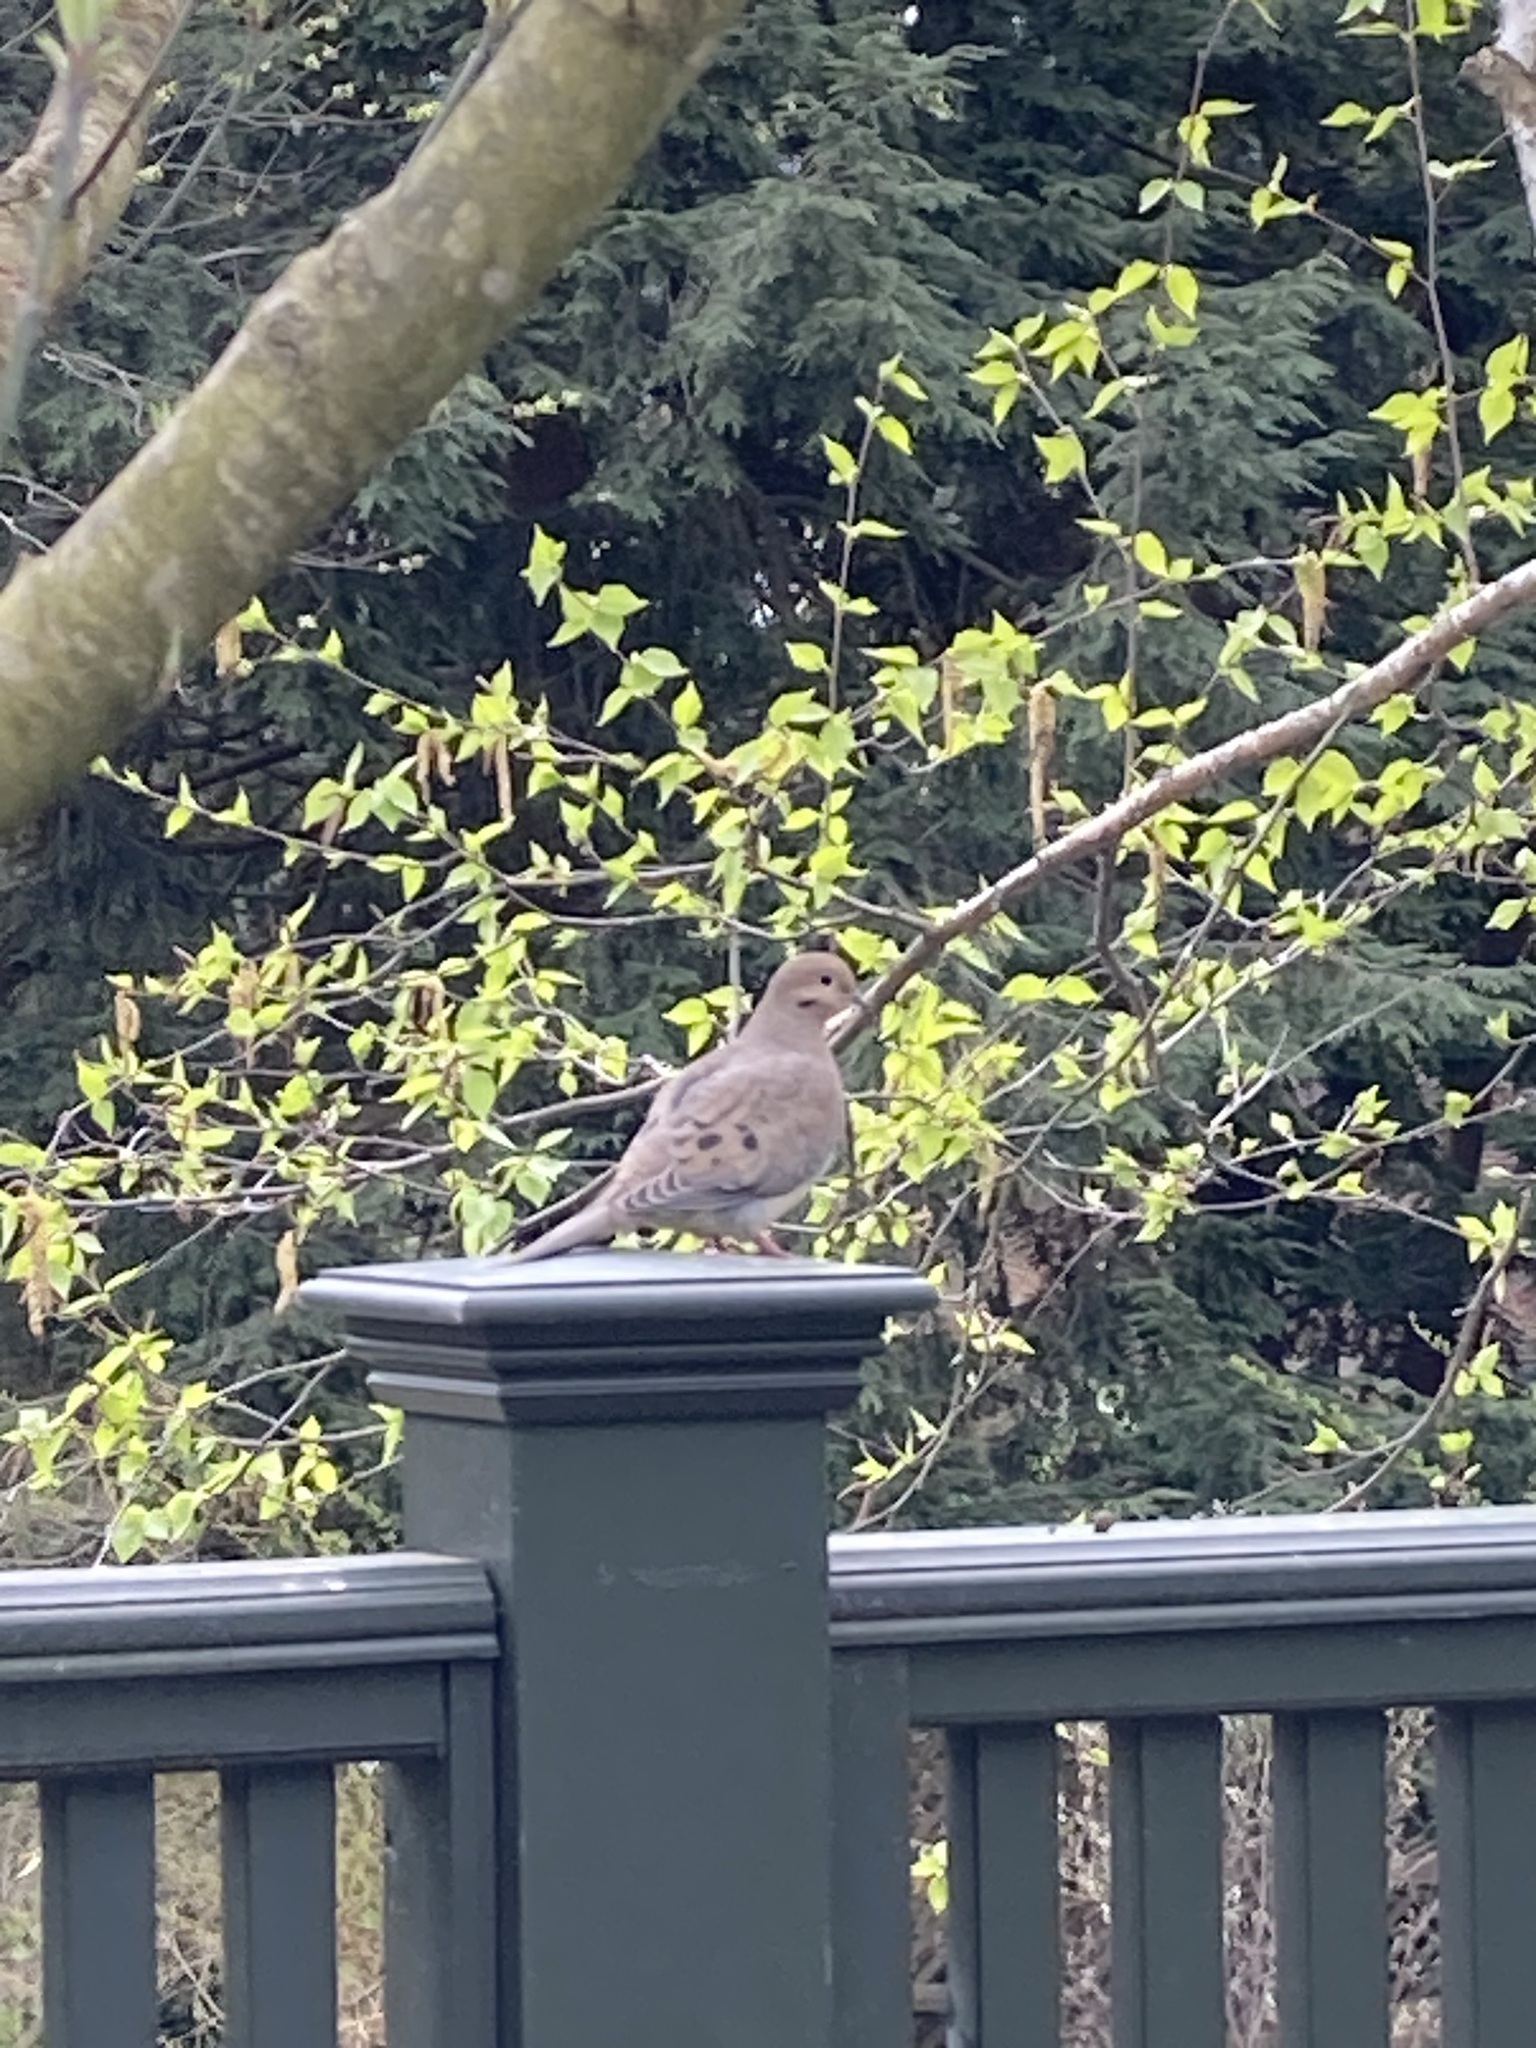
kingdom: Animalia
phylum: Chordata
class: Aves
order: Columbiformes
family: Columbidae
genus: Zenaida
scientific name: Zenaida macroura
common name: Mourning dove
